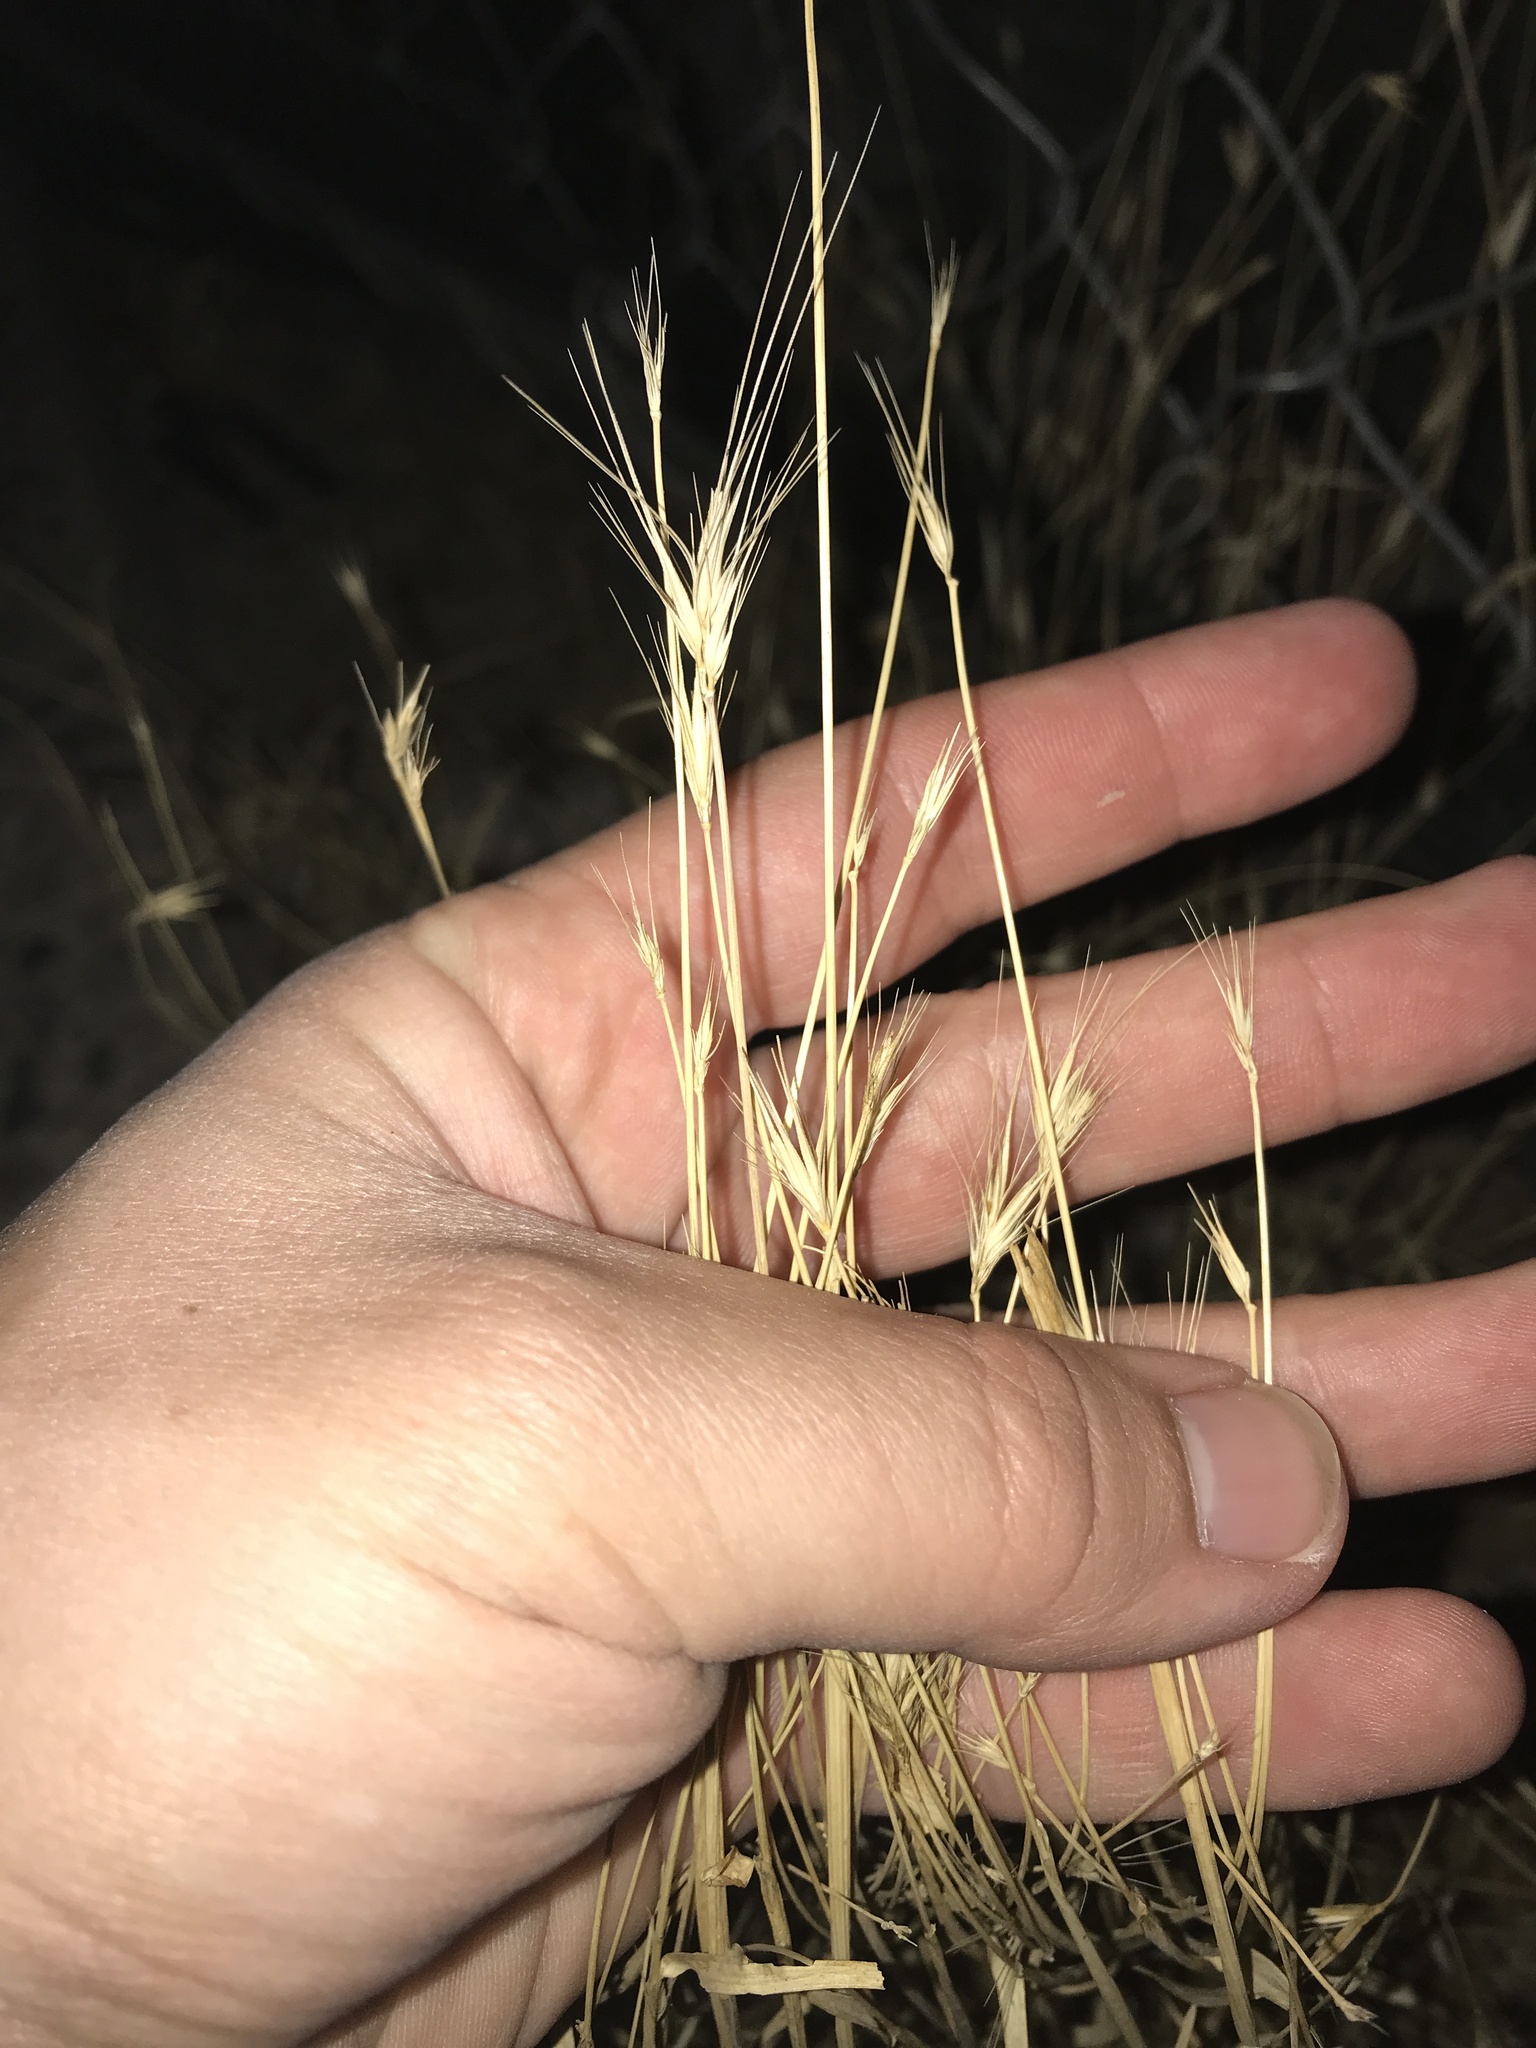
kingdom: Plantae
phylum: Tracheophyta
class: Liliopsida
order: Poales
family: Poaceae
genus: Hordeum
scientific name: Hordeum murinum
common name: Wall barley
